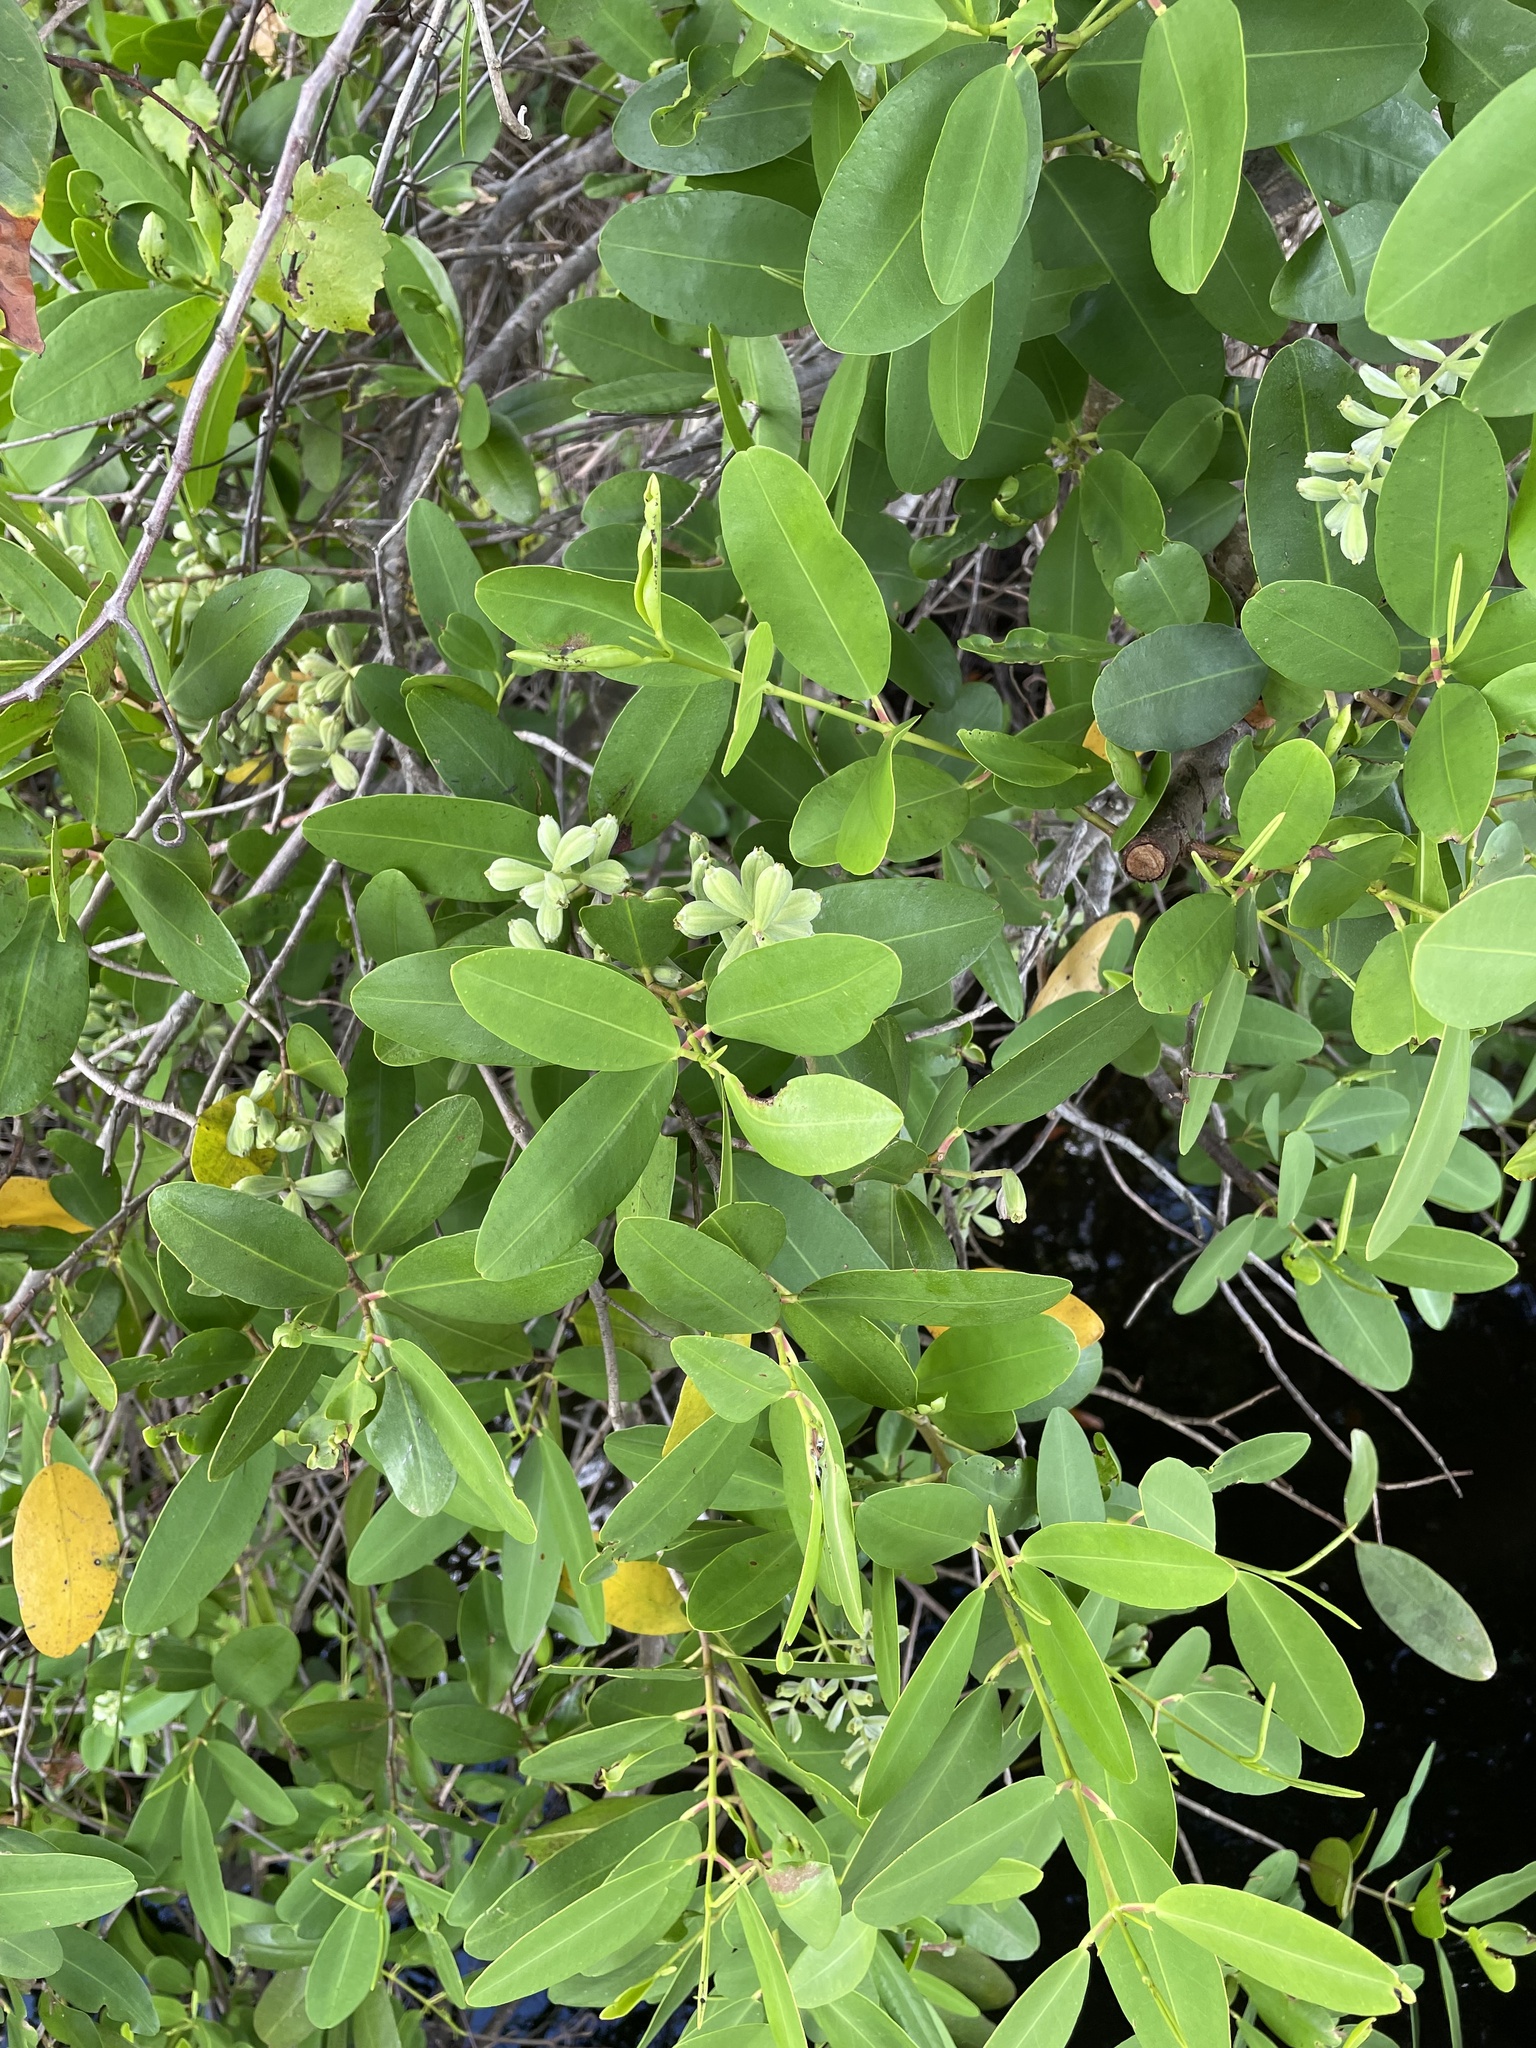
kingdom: Plantae
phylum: Tracheophyta
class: Magnoliopsida
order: Myrtales
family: Combretaceae
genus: Laguncularia
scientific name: Laguncularia racemosa
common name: White mangrove
